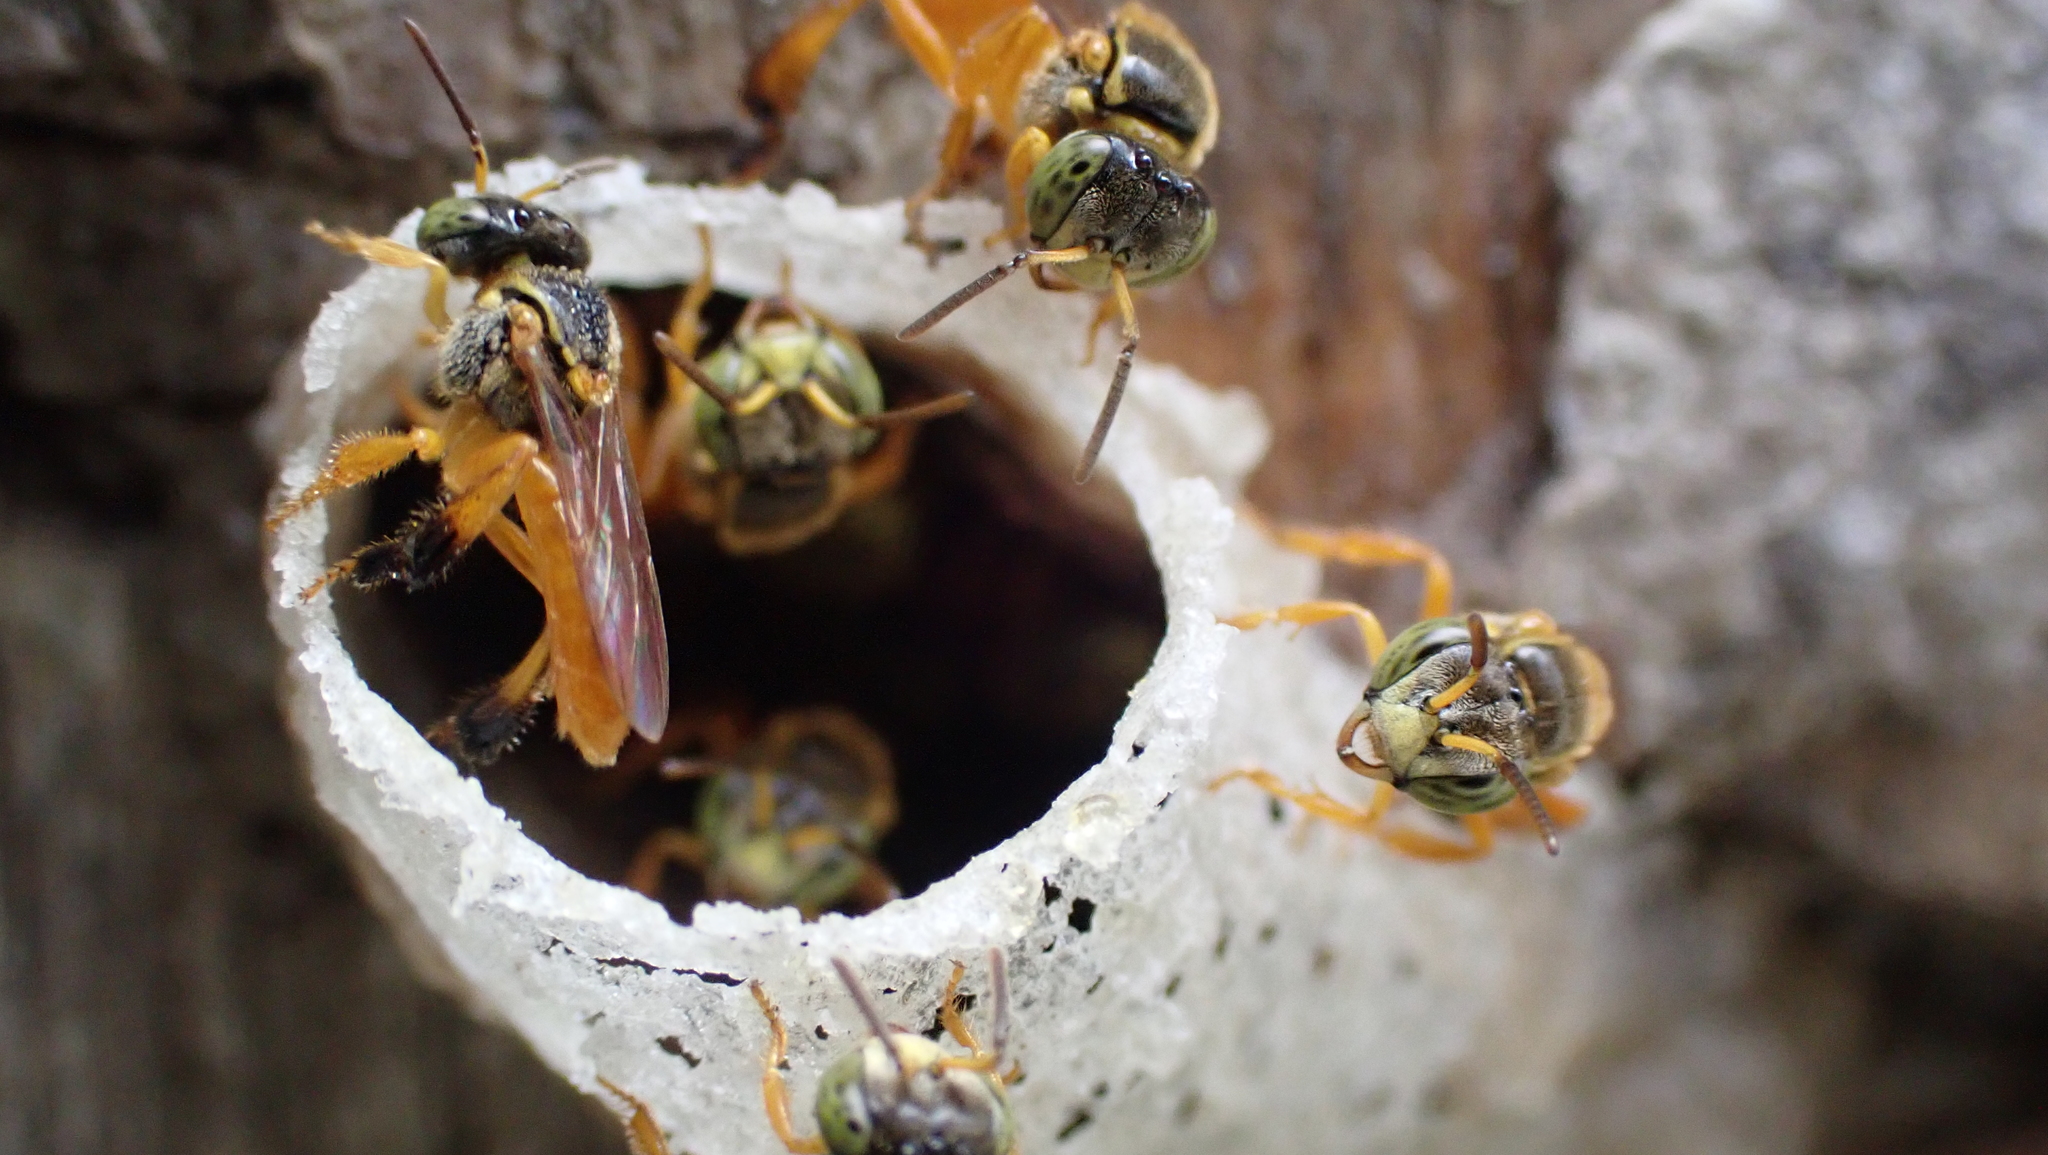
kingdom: Animalia
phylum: Arthropoda
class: Insecta
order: Hymenoptera
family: Apidae
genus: Tetragonisca
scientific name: Tetragonisca angustula
